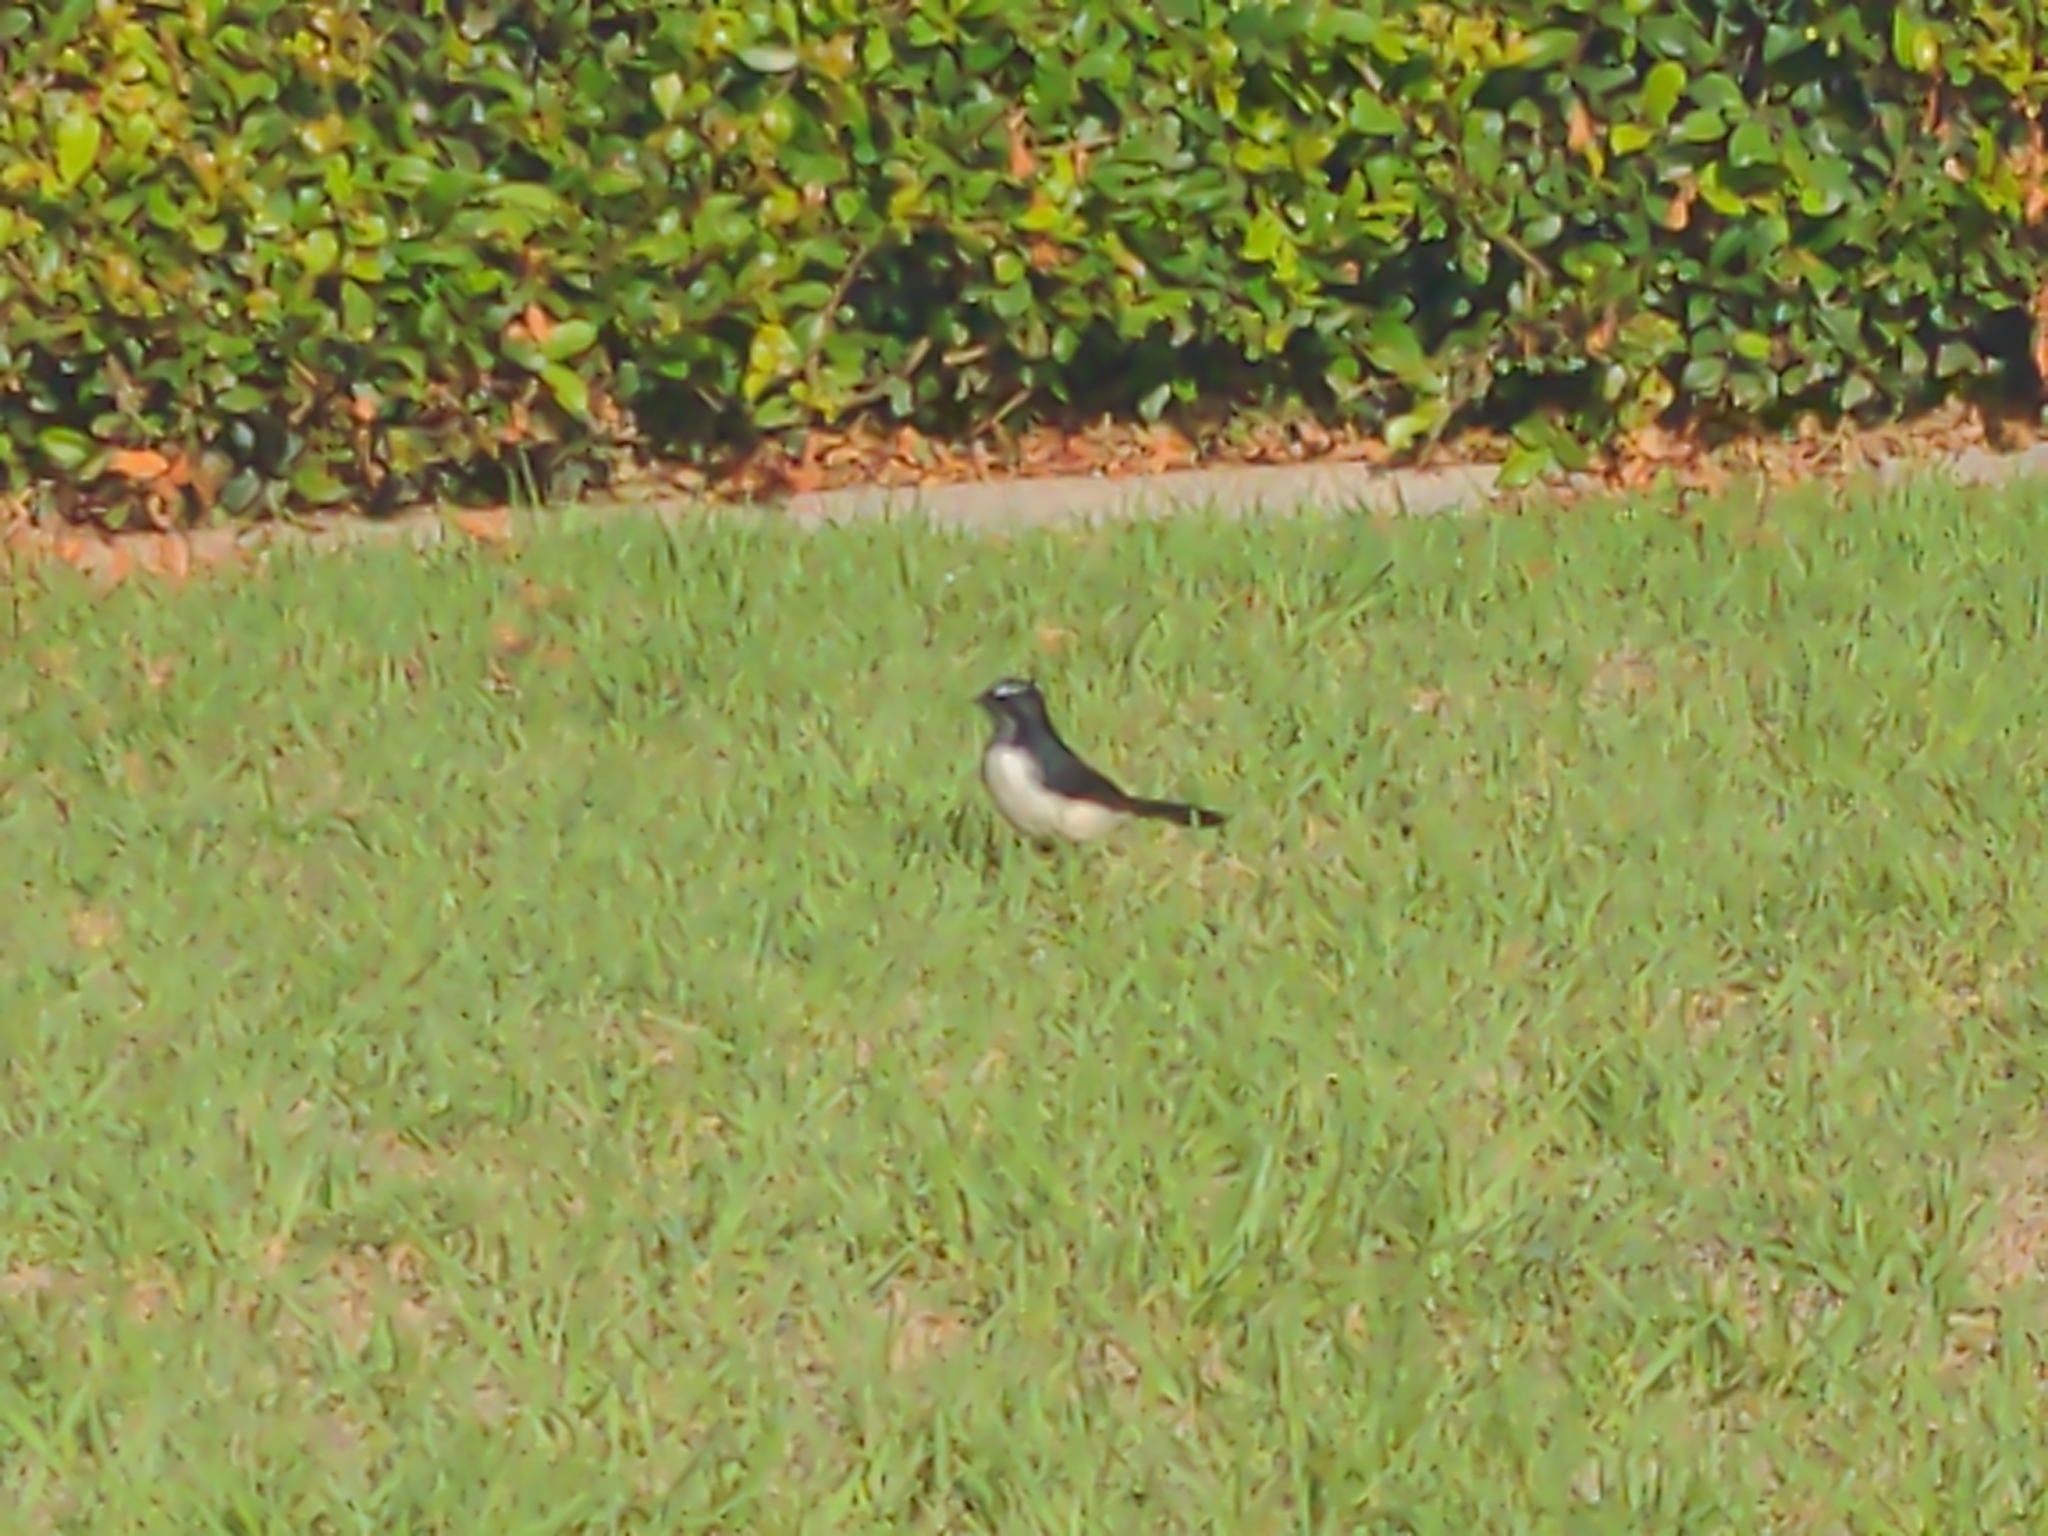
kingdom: Animalia
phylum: Chordata
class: Aves
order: Passeriformes
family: Rhipiduridae
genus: Rhipidura
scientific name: Rhipidura leucophrys
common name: Willie wagtail
